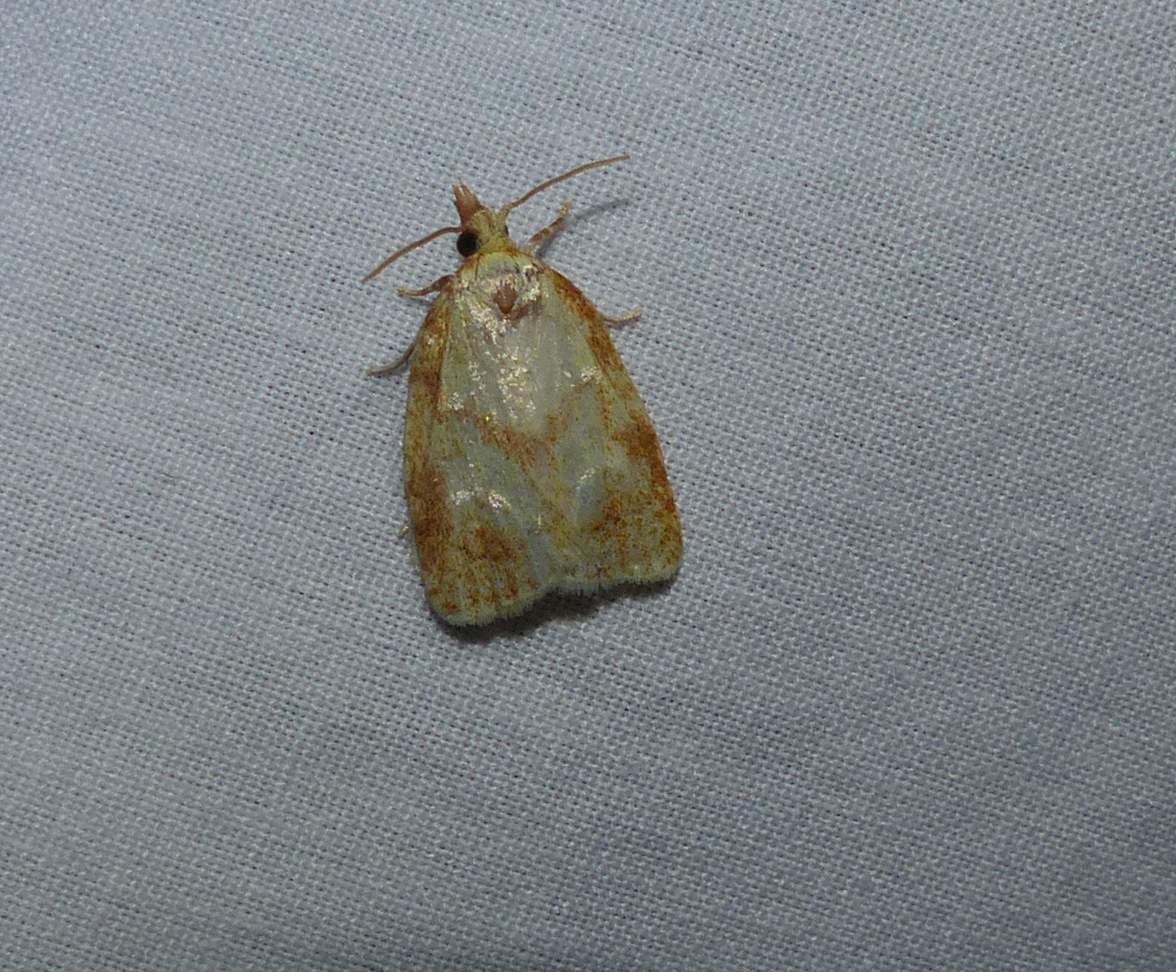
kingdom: Animalia
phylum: Arthropoda
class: Insecta
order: Lepidoptera
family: Tortricidae
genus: Cenopis
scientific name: Cenopis pettitana
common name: Maple-basswood leafroller moth
